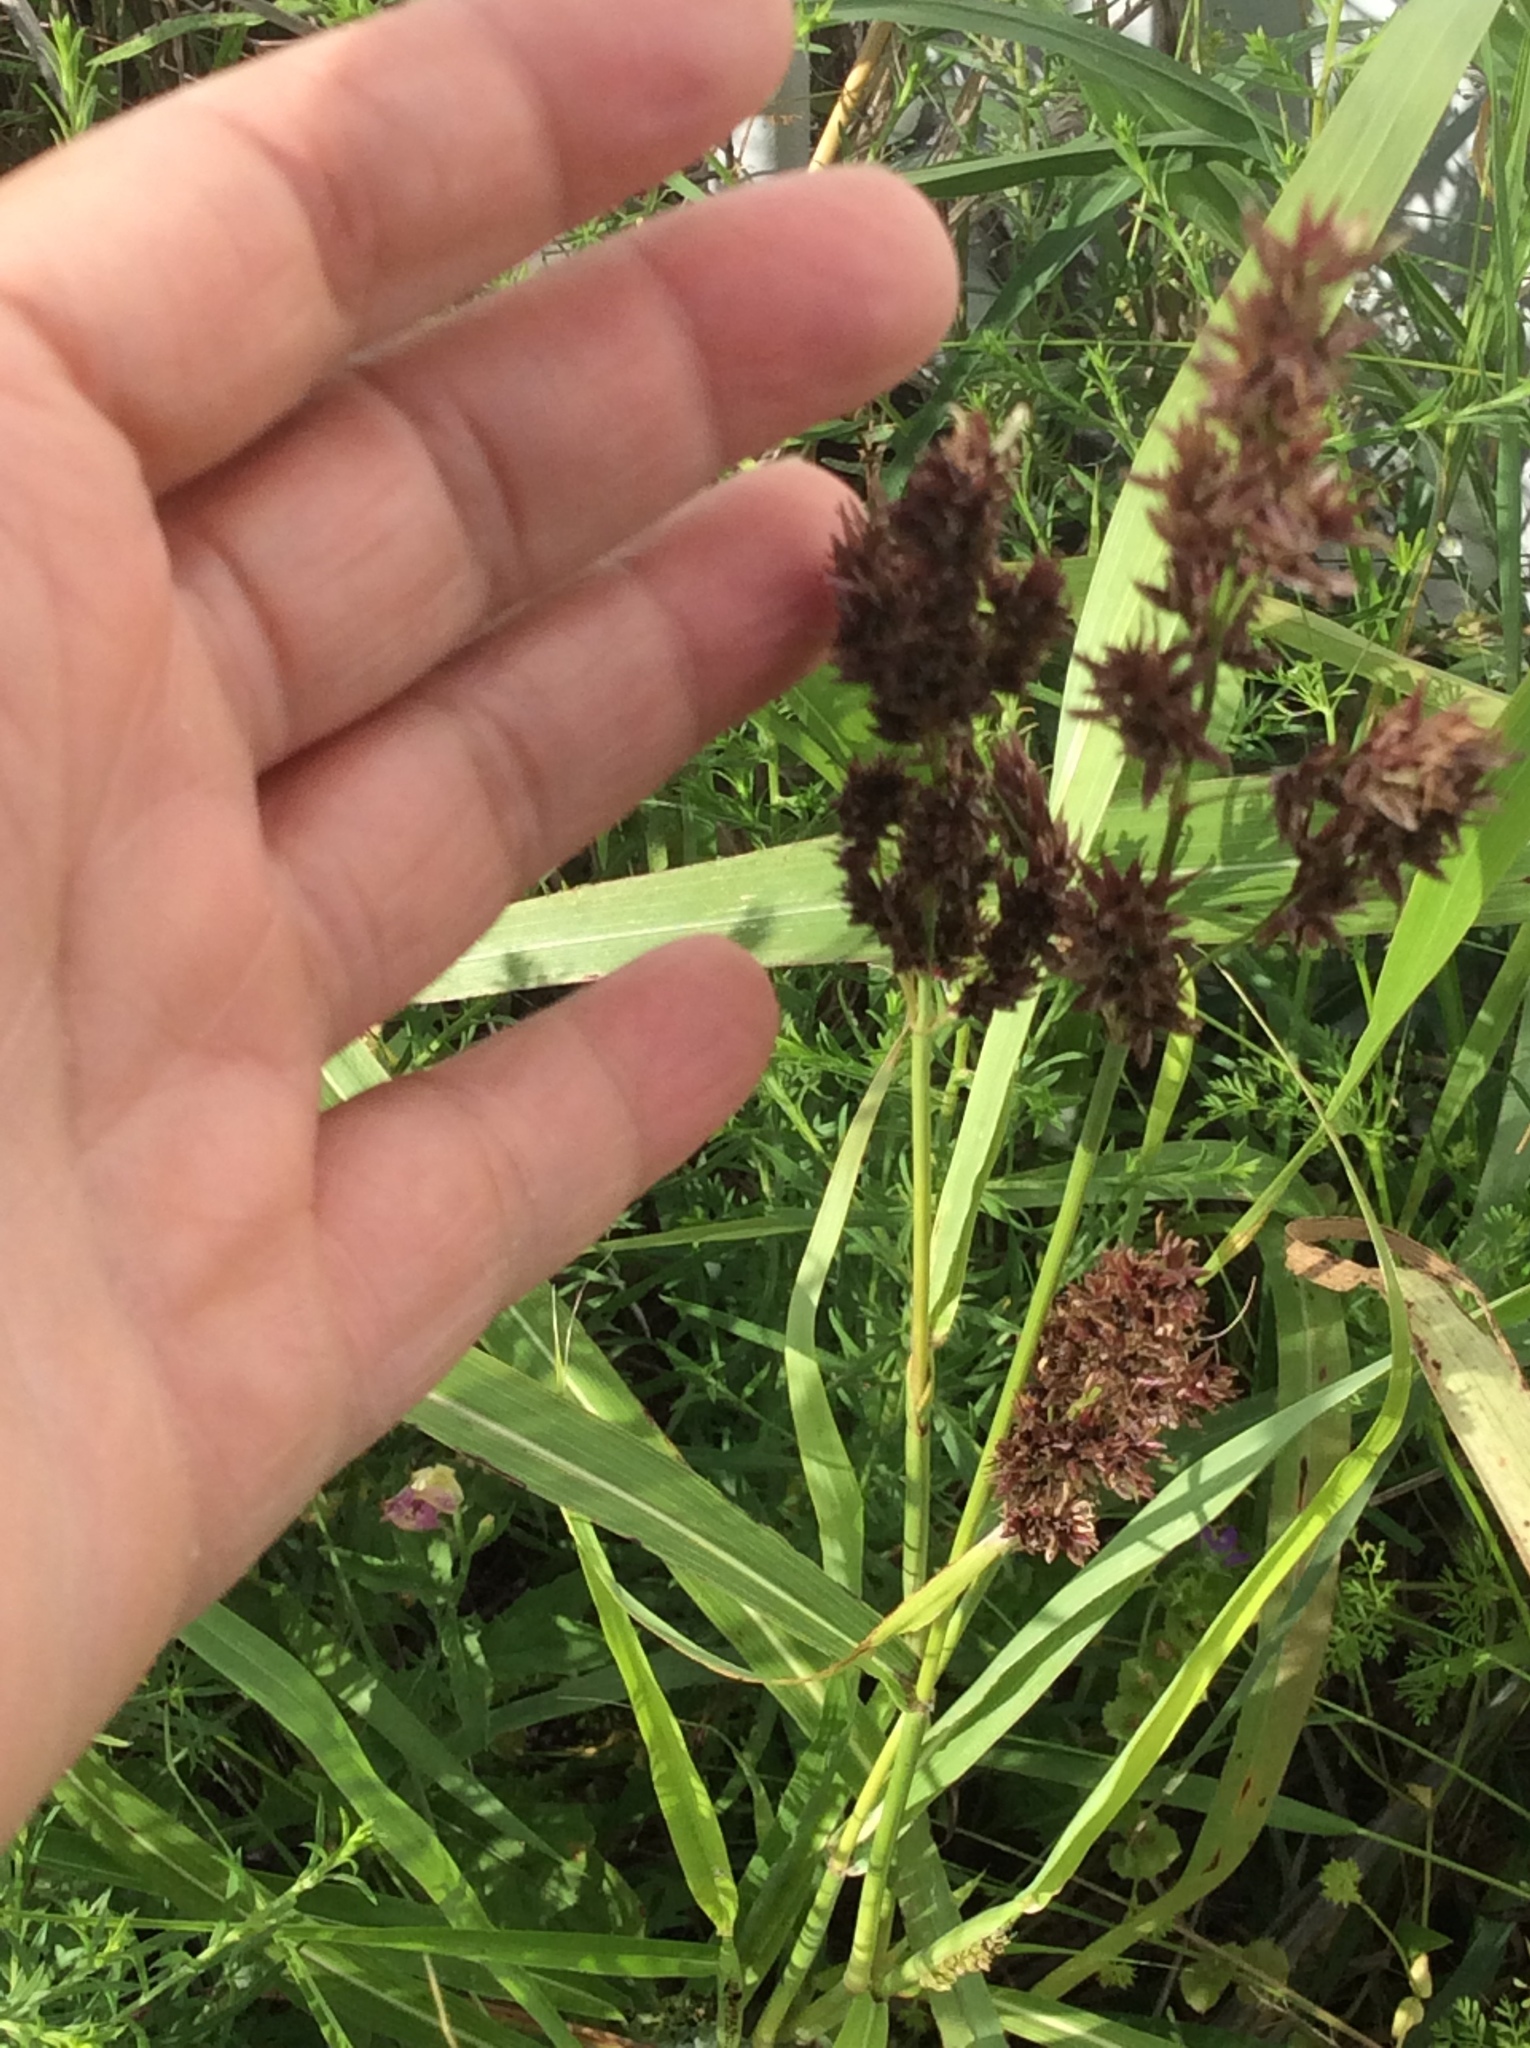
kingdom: Plantae
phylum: Tracheophyta
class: Liliopsida
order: Poales
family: Poaceae
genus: Sorghum
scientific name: Sorghum halepense
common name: Johnson-grass
